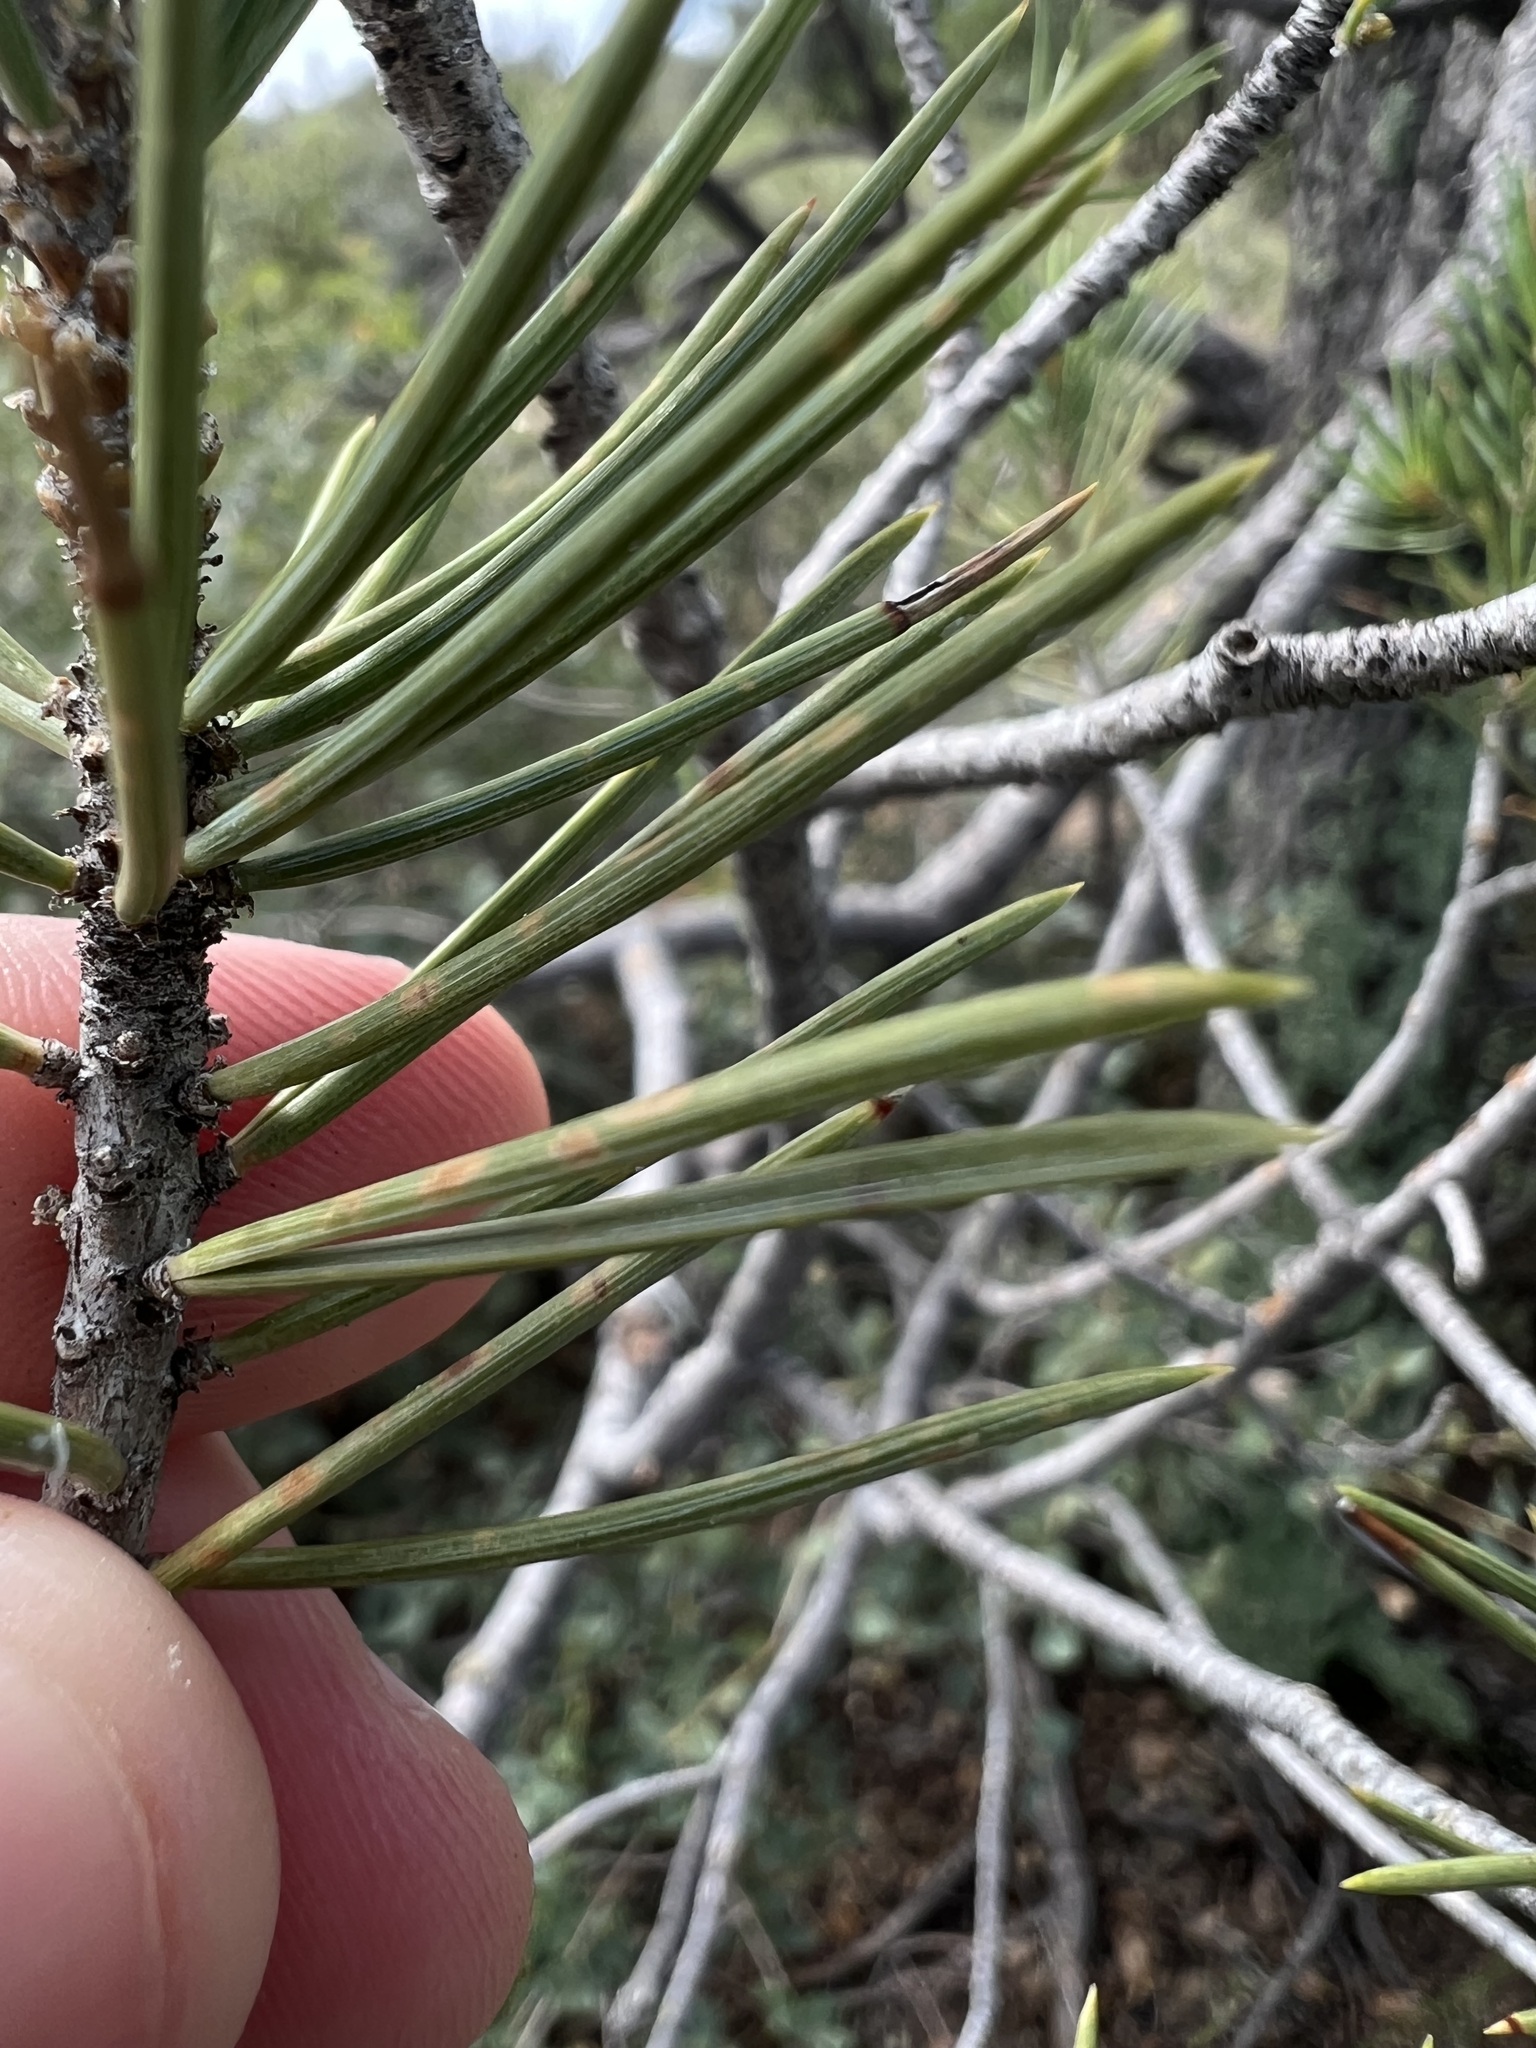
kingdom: Plantae
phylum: Tracheophyta
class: Pinopsida
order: Pinales
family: Pinaceae
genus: Pinus
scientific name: Pinus monophylla
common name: One-leaved nut pine
